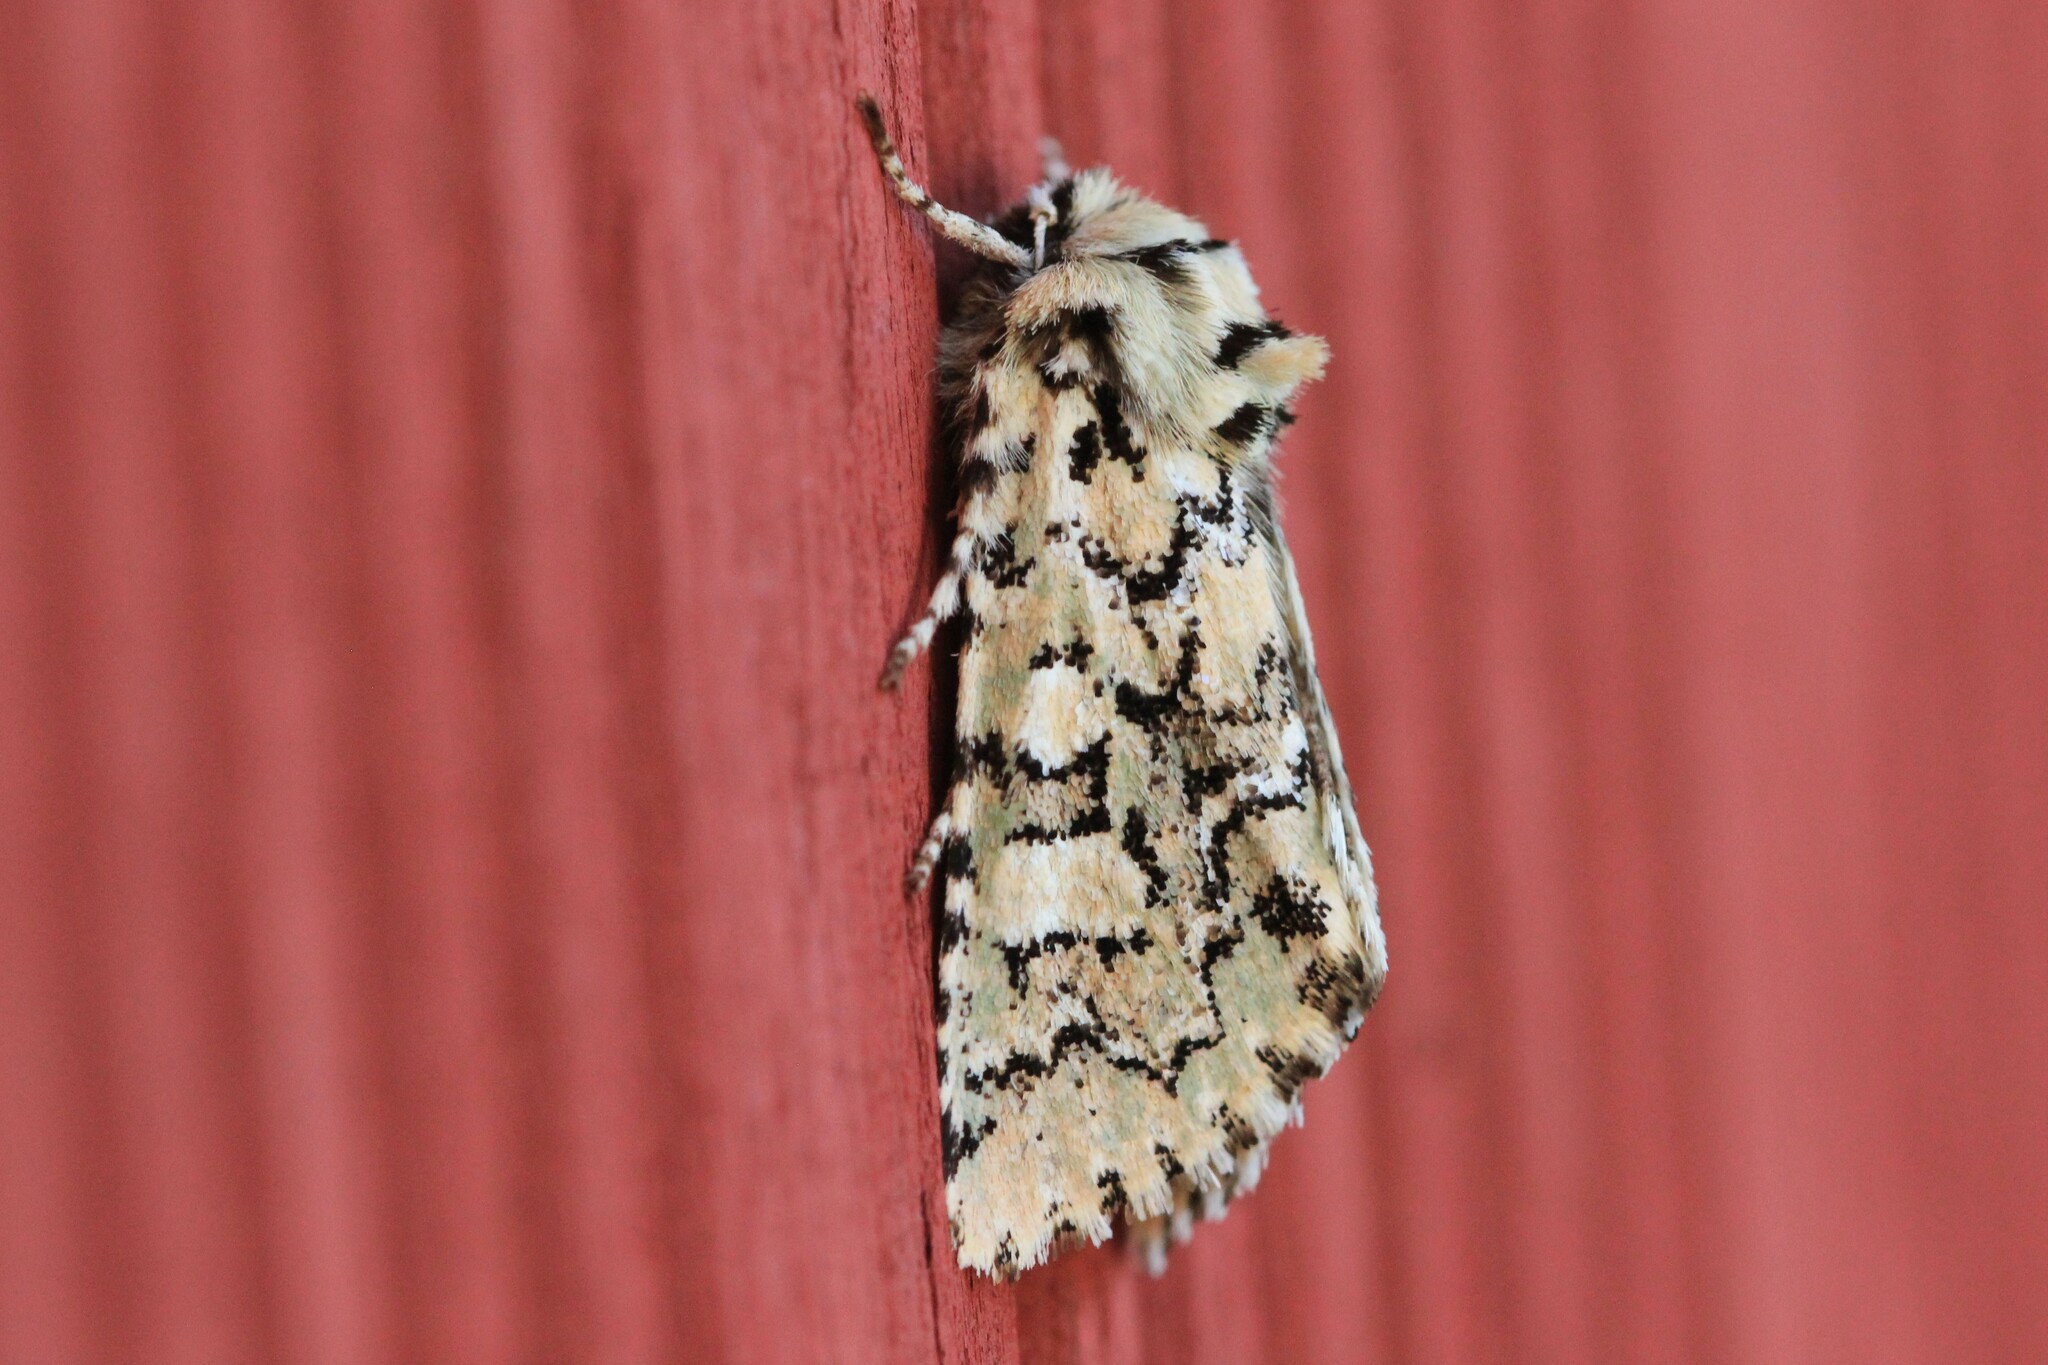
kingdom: Animalia
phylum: Arthropoda
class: Insecta
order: Lepidoptera
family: Noctuidae
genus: Feralia
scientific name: Feralia jocosa
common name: Joker
